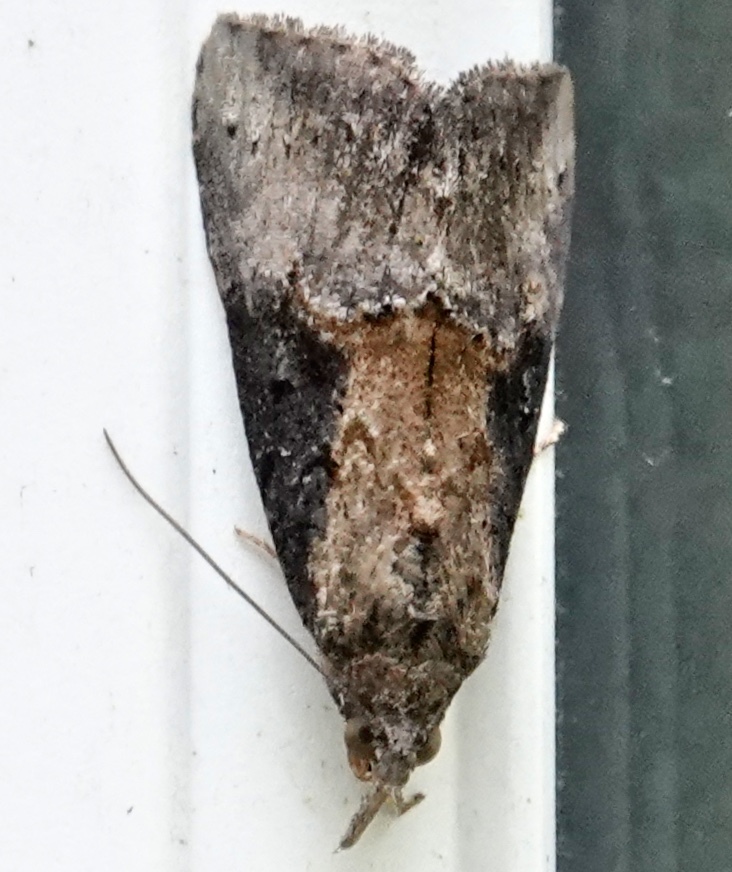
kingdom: Animalia
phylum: Arthropoda
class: Insecta
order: Lepidoptera
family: Erebidae
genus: Hypena
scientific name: Hypena scabra
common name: Green cloverworm
